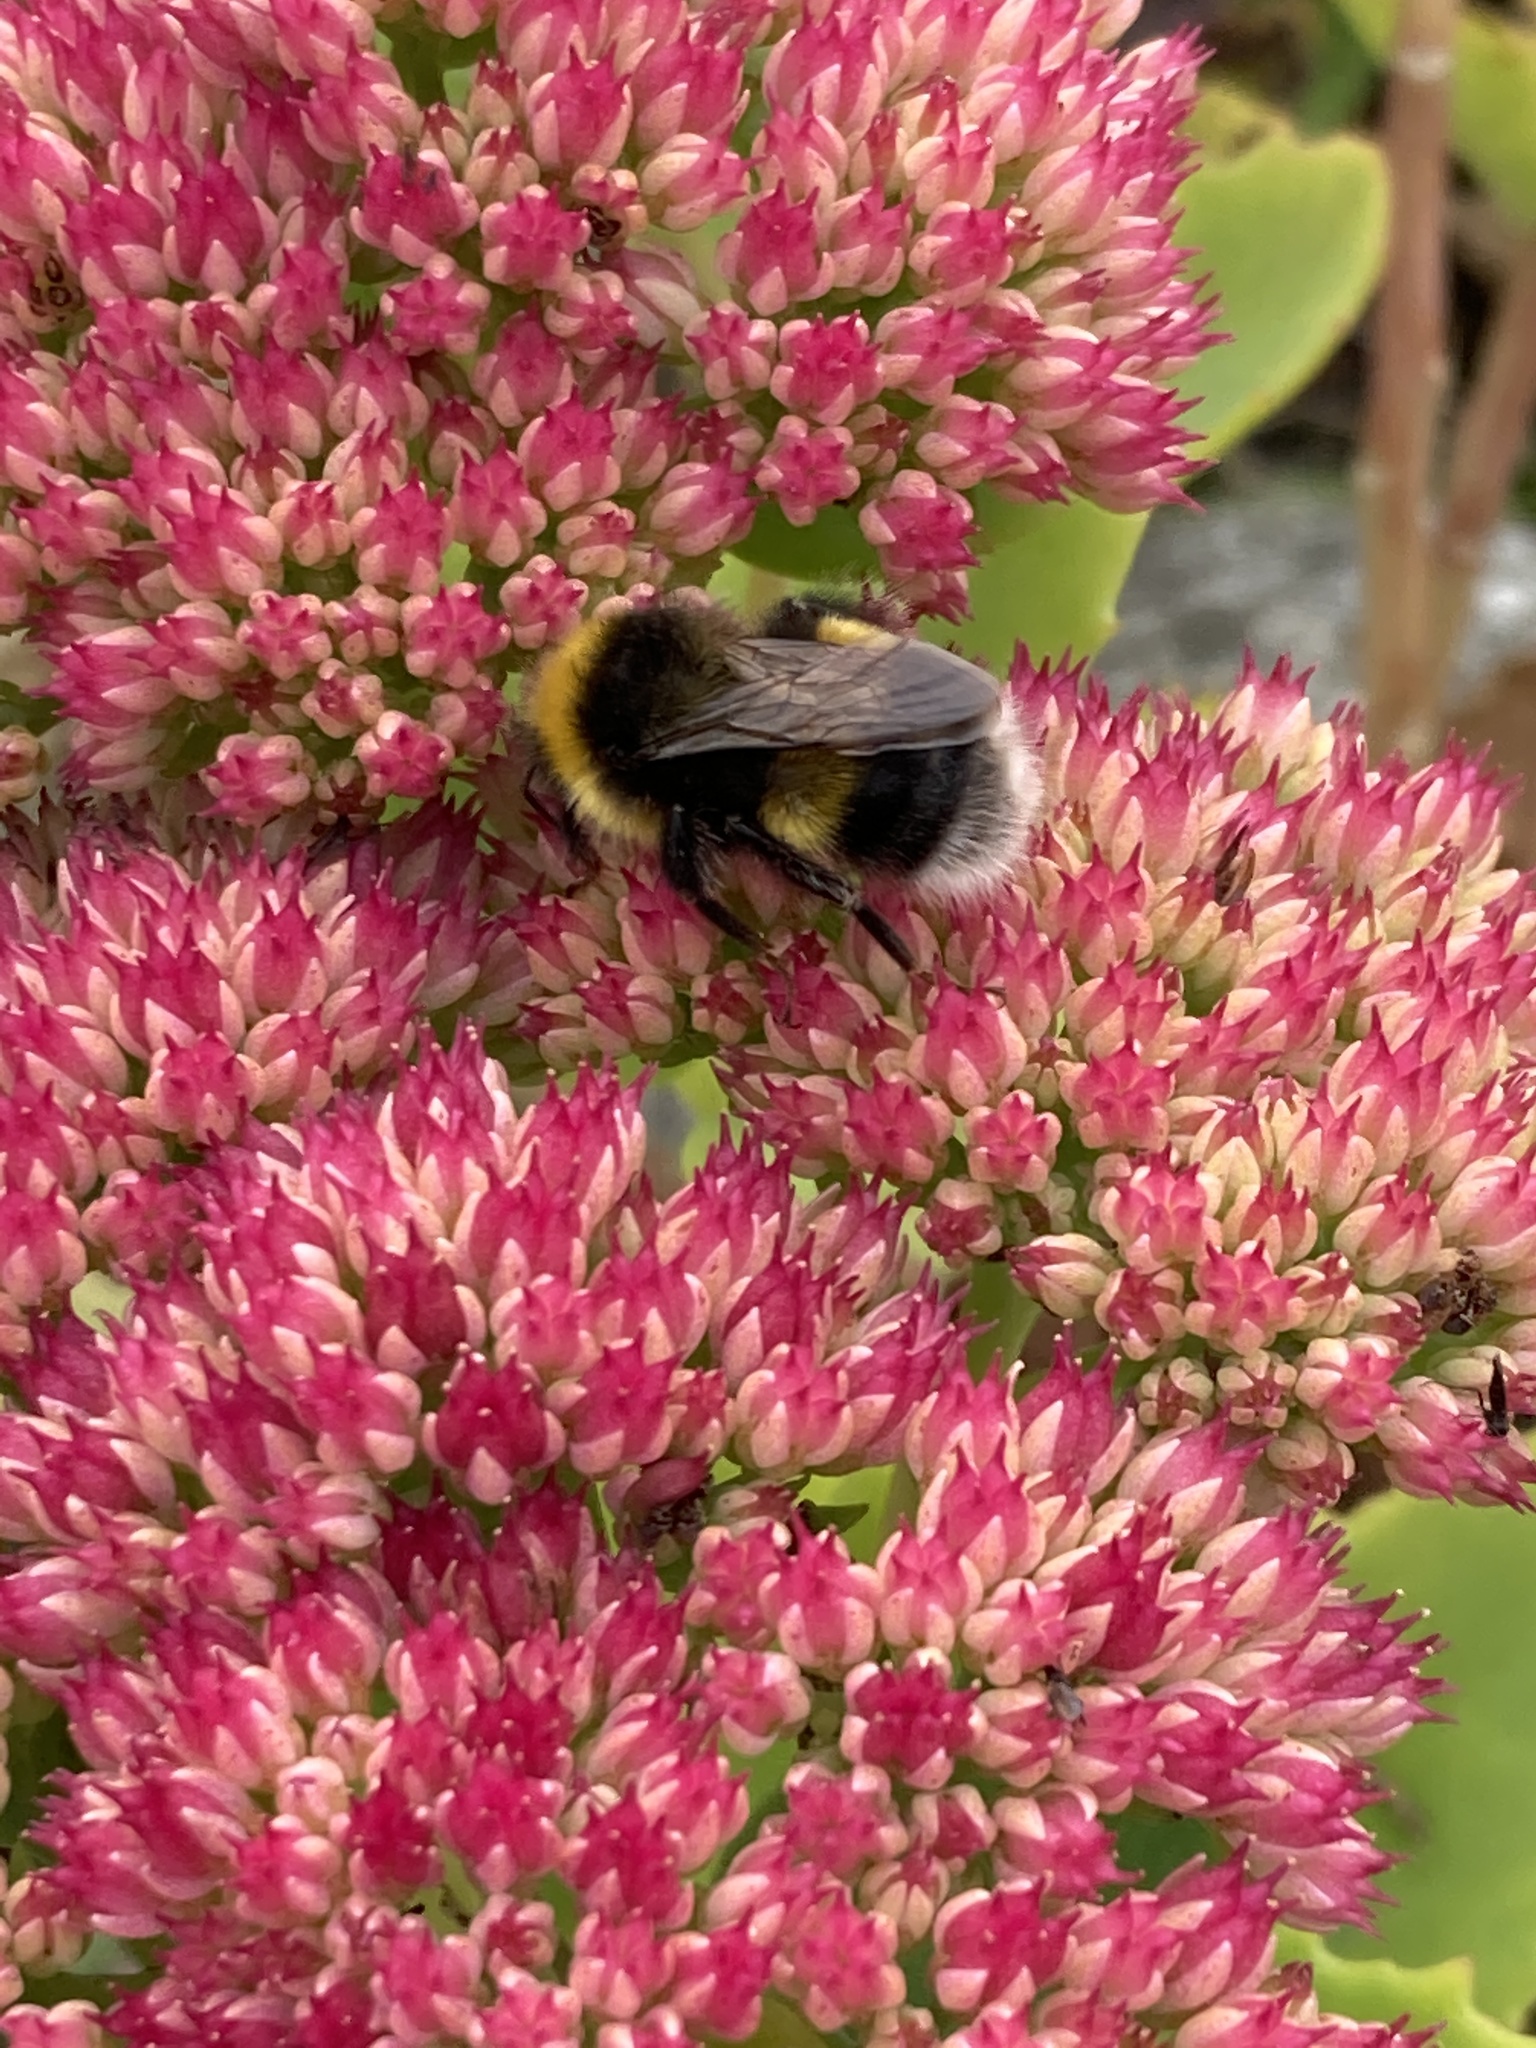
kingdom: Animalia
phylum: Arthropoda
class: Insecta
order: Hymenoptera
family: Apidae
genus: Bombus
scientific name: Bombus
